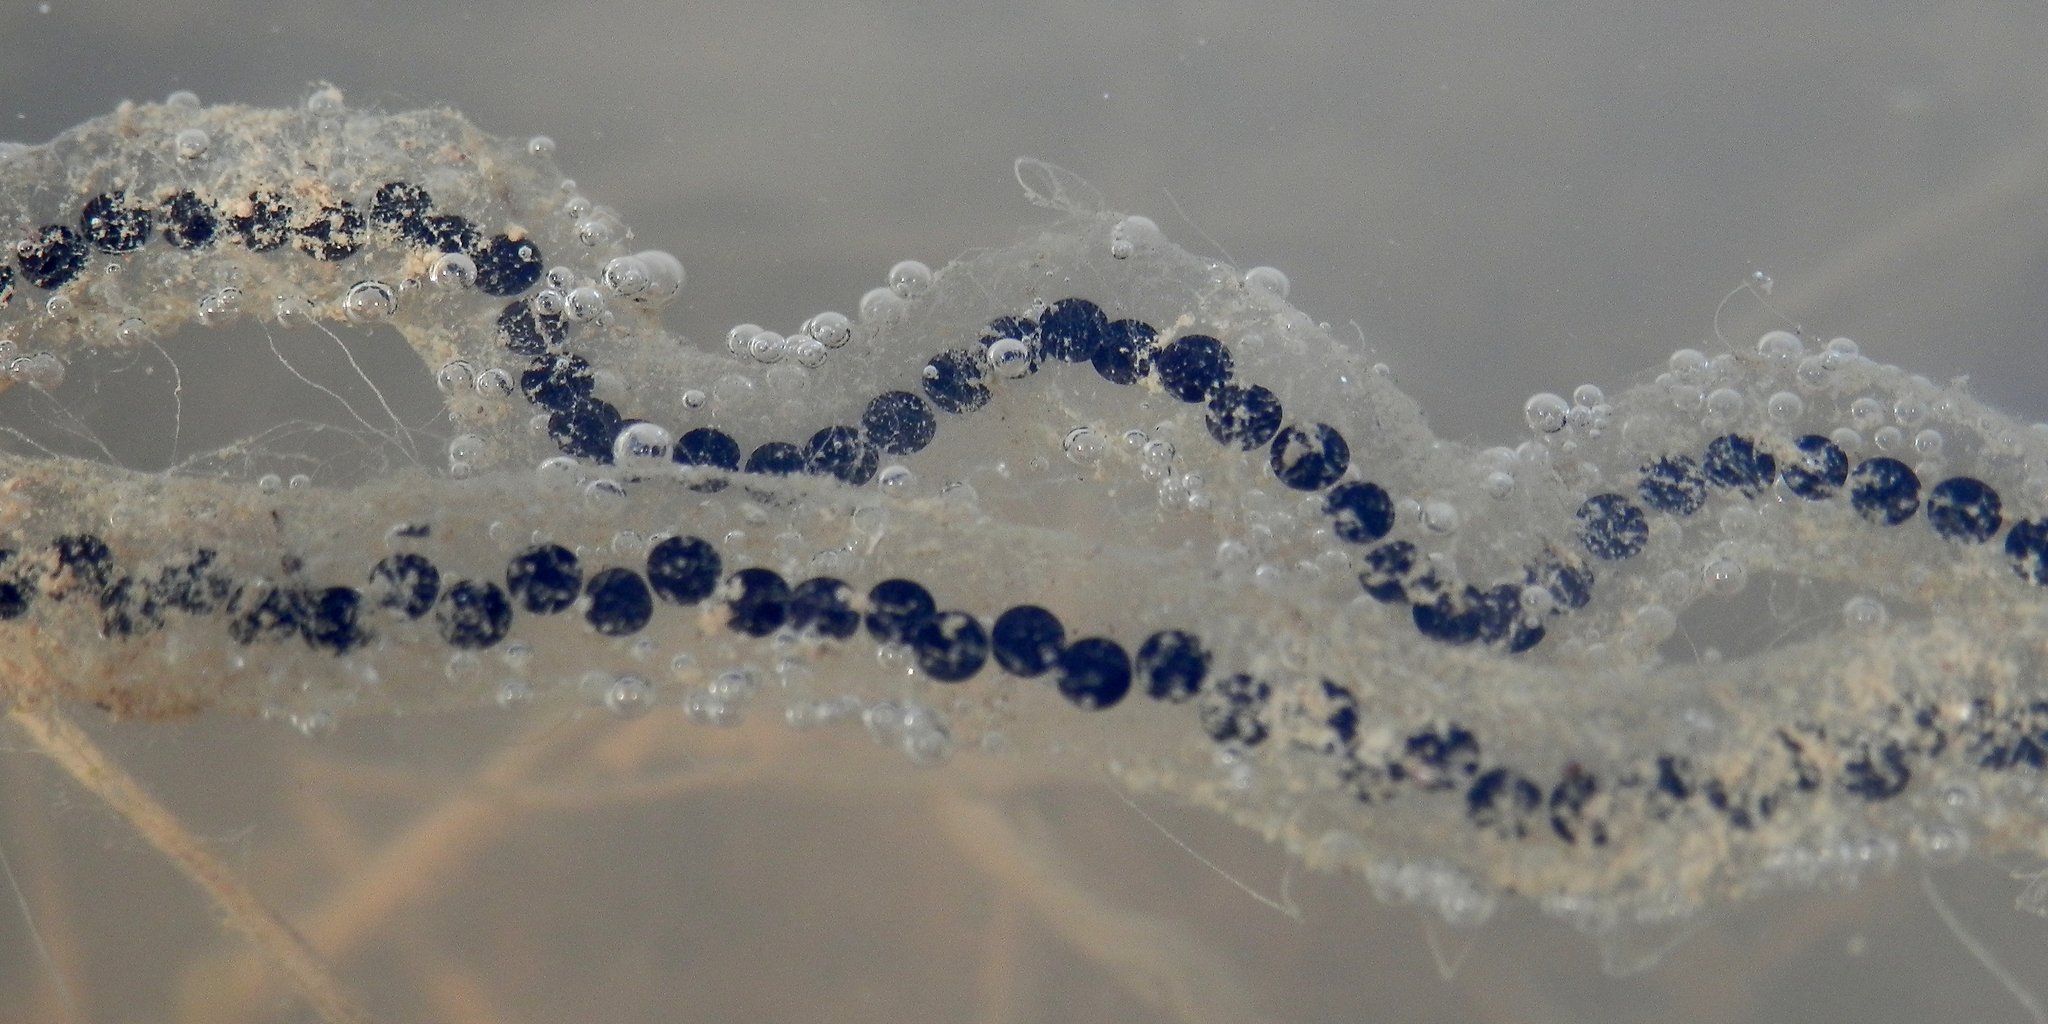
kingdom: Animalia
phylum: Chordata
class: Amphibia
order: Anura
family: Bufonidae
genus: Anaxyrus
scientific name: Anaxyrus americanus
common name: American toad
